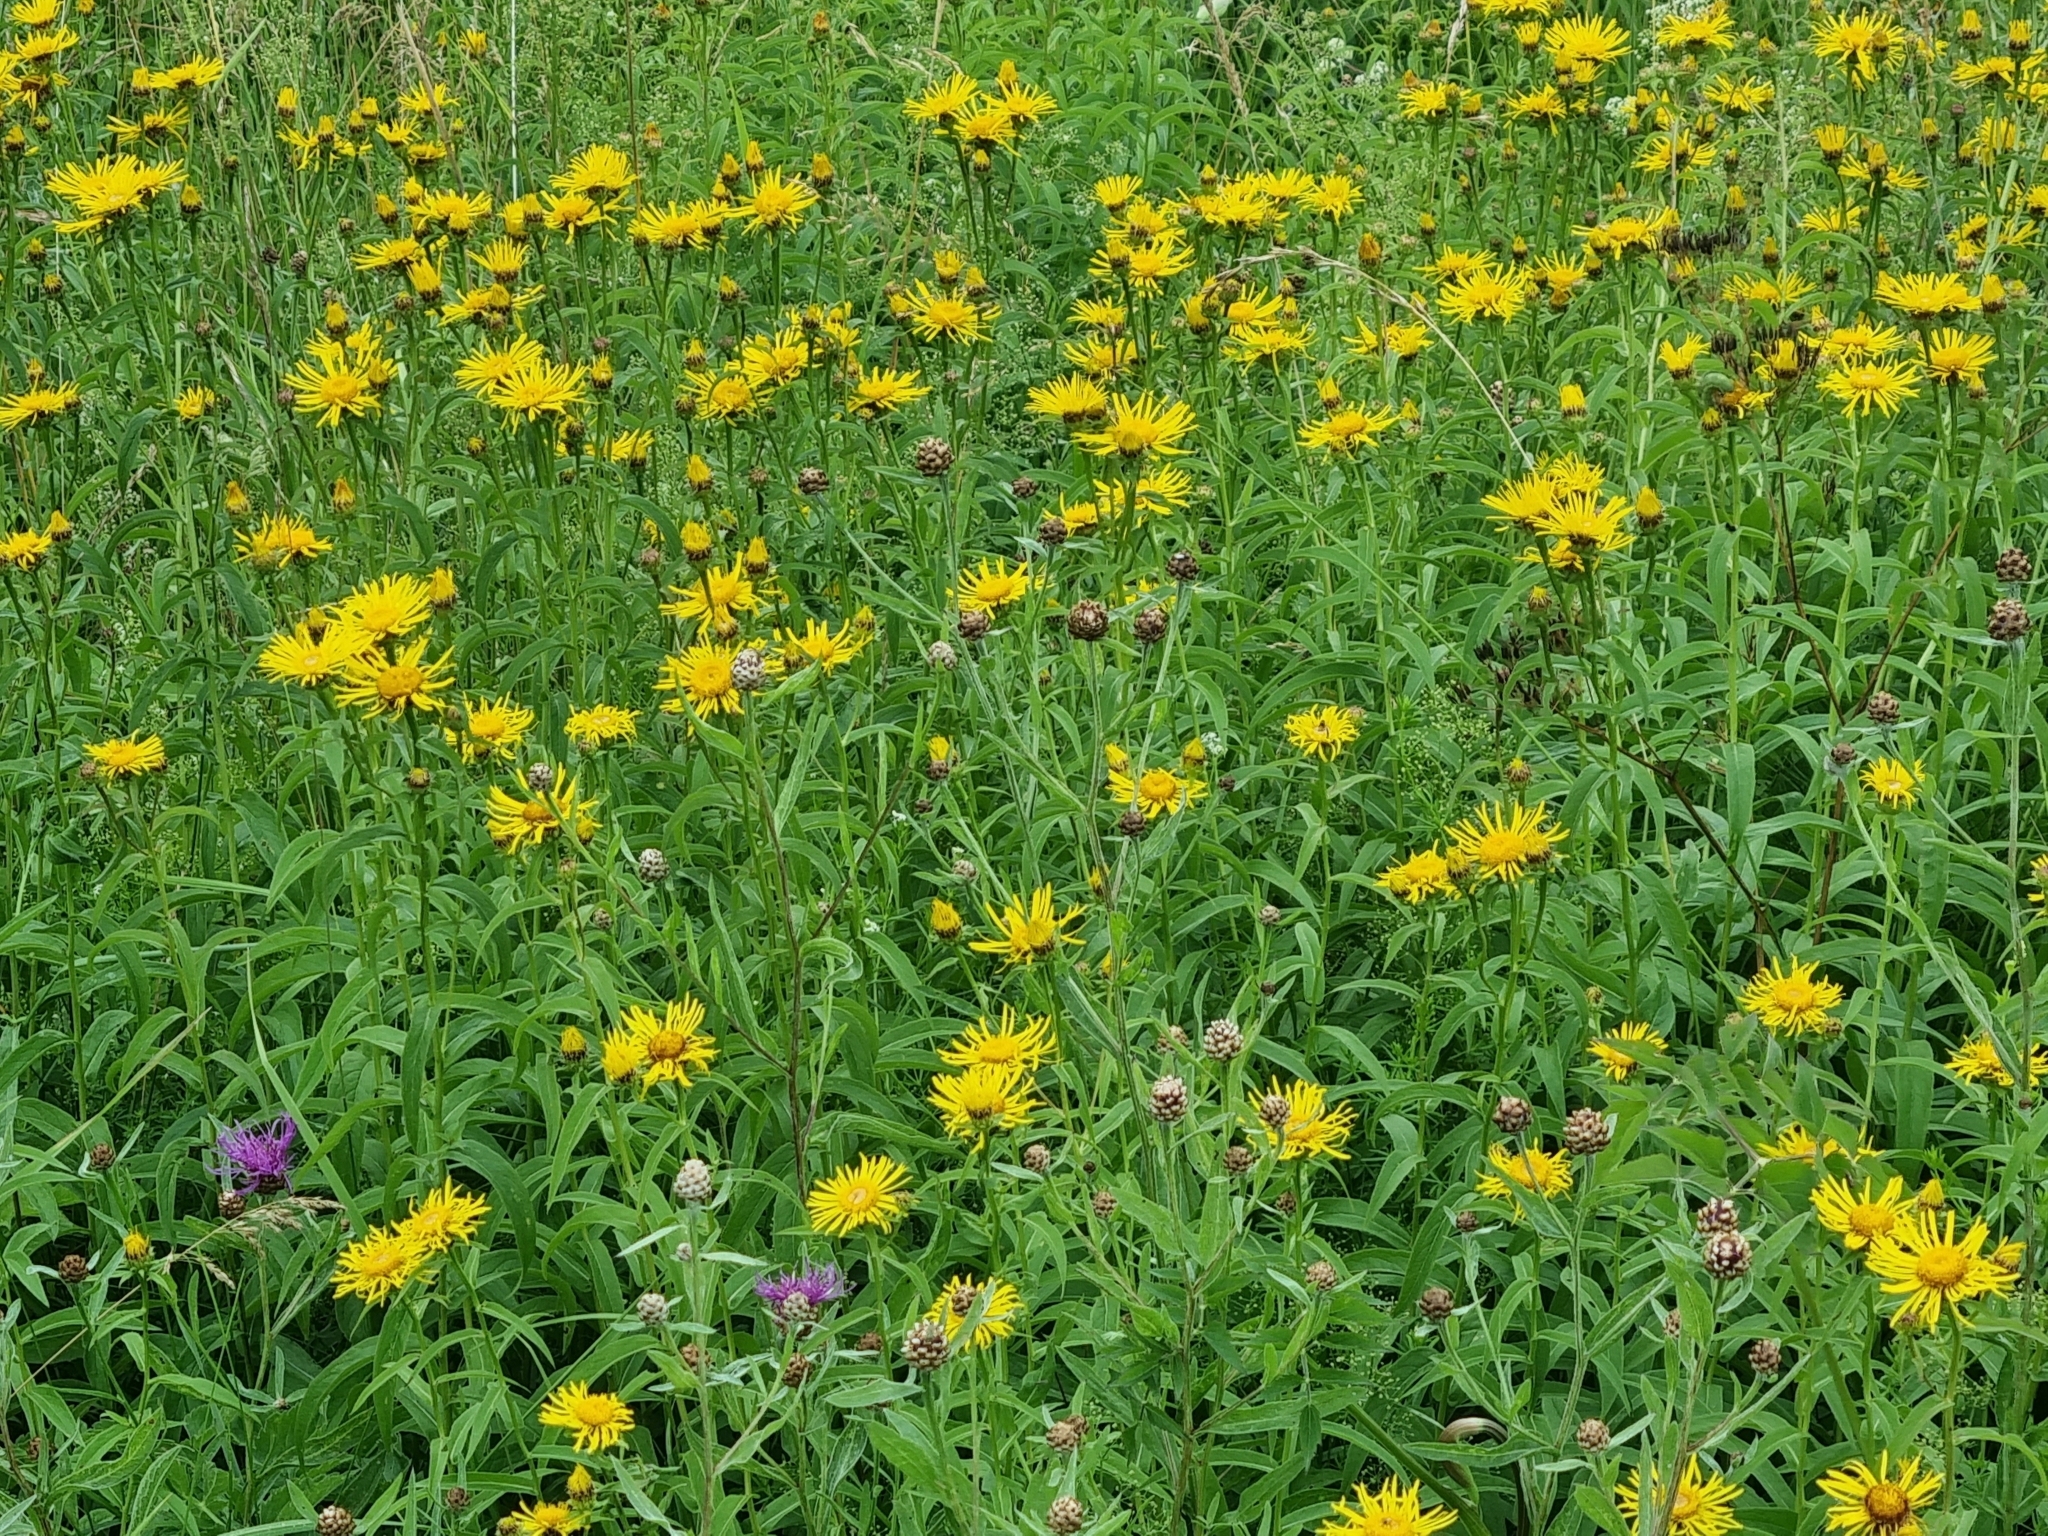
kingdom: Plantae
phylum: Tracheophyta
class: Magnoliopsida
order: Asterales
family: Asteraceae
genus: Pentanema
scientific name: Pentanema salicinum
